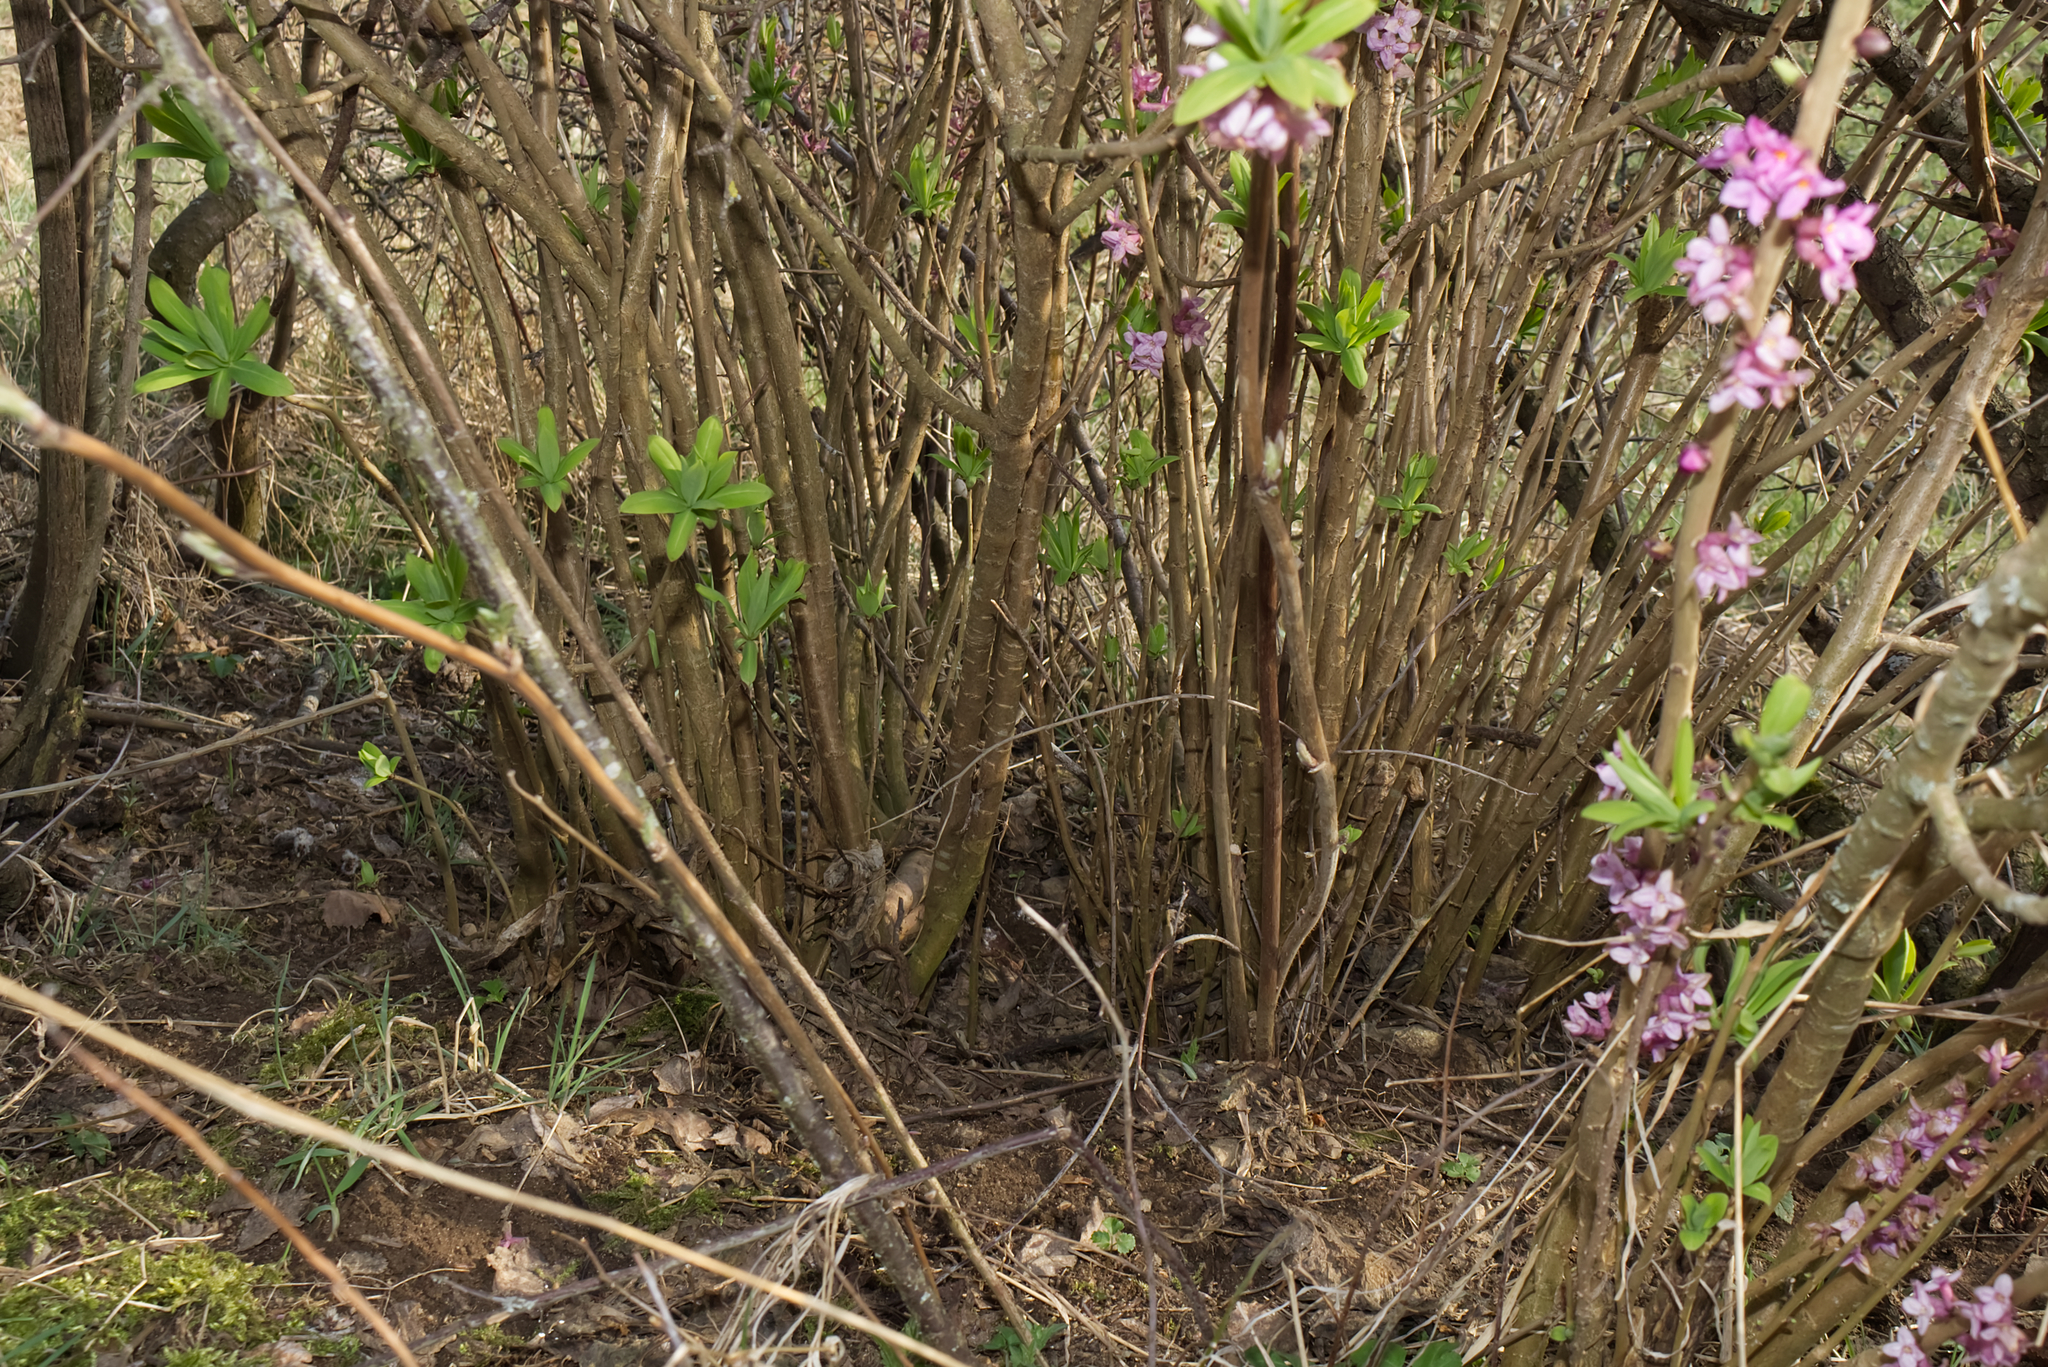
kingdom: Plantae
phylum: Tracheophyta
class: Magnoliopsida
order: Malvales
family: Thymelaeaceae
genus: Daphne
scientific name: Daphne mezereum
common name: Mezereon
